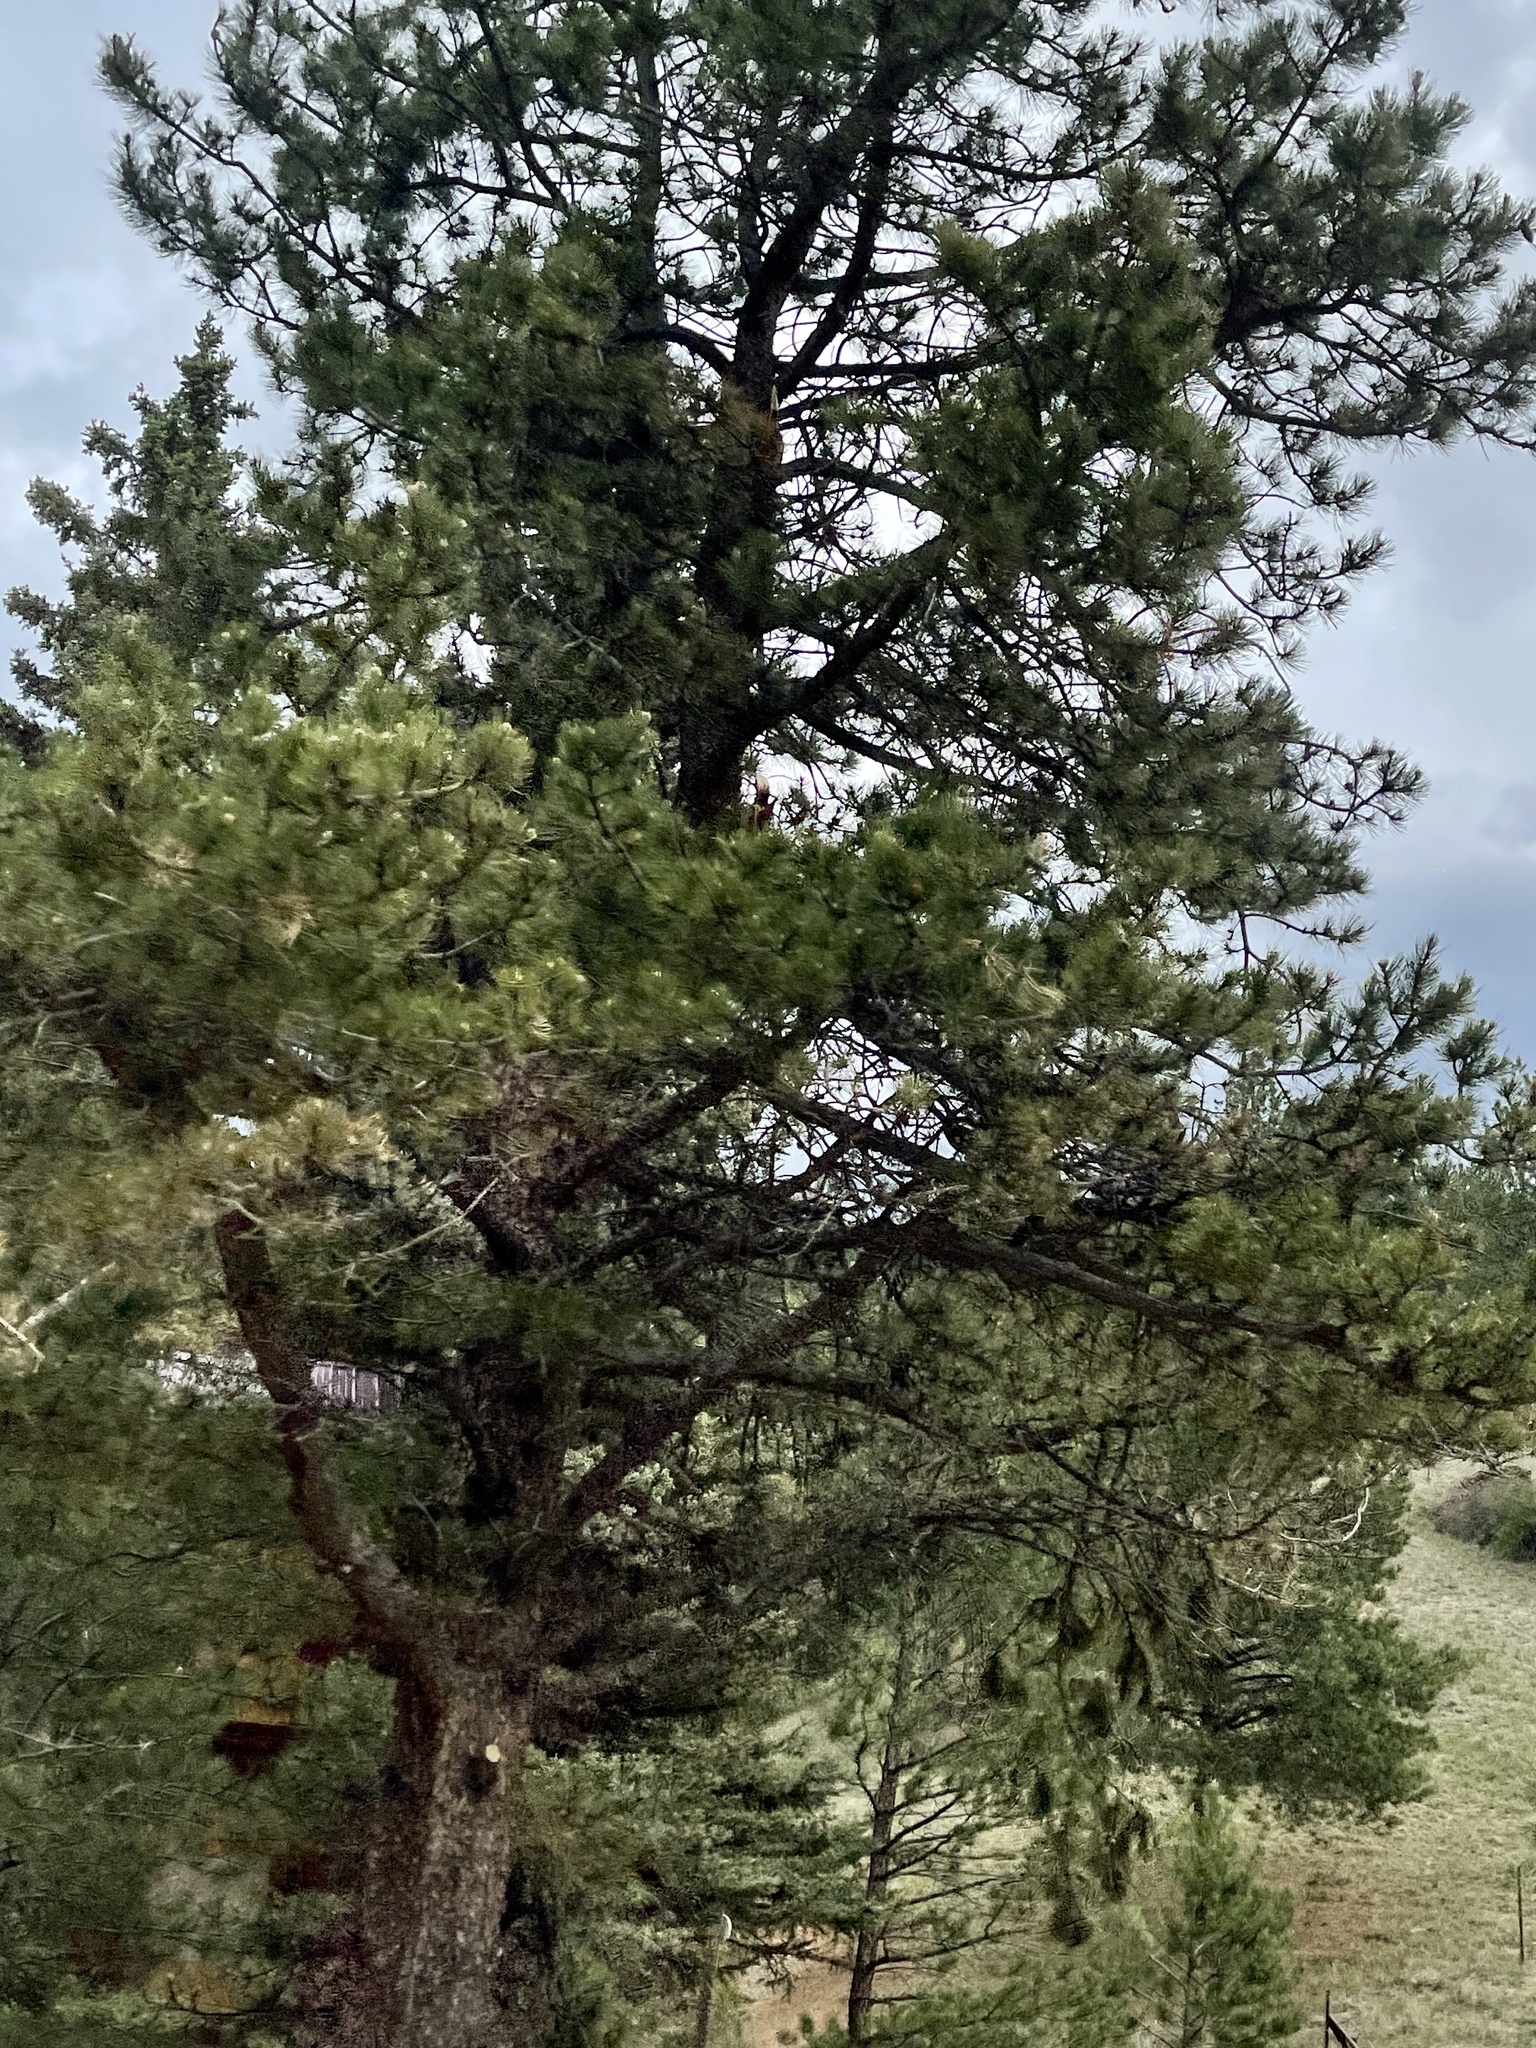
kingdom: Plantae
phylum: Tracheophyta
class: Pinopsida
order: Pinales
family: Pinaceae
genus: Pinus
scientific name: Pinus ponderosa
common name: Western yellow-pine
